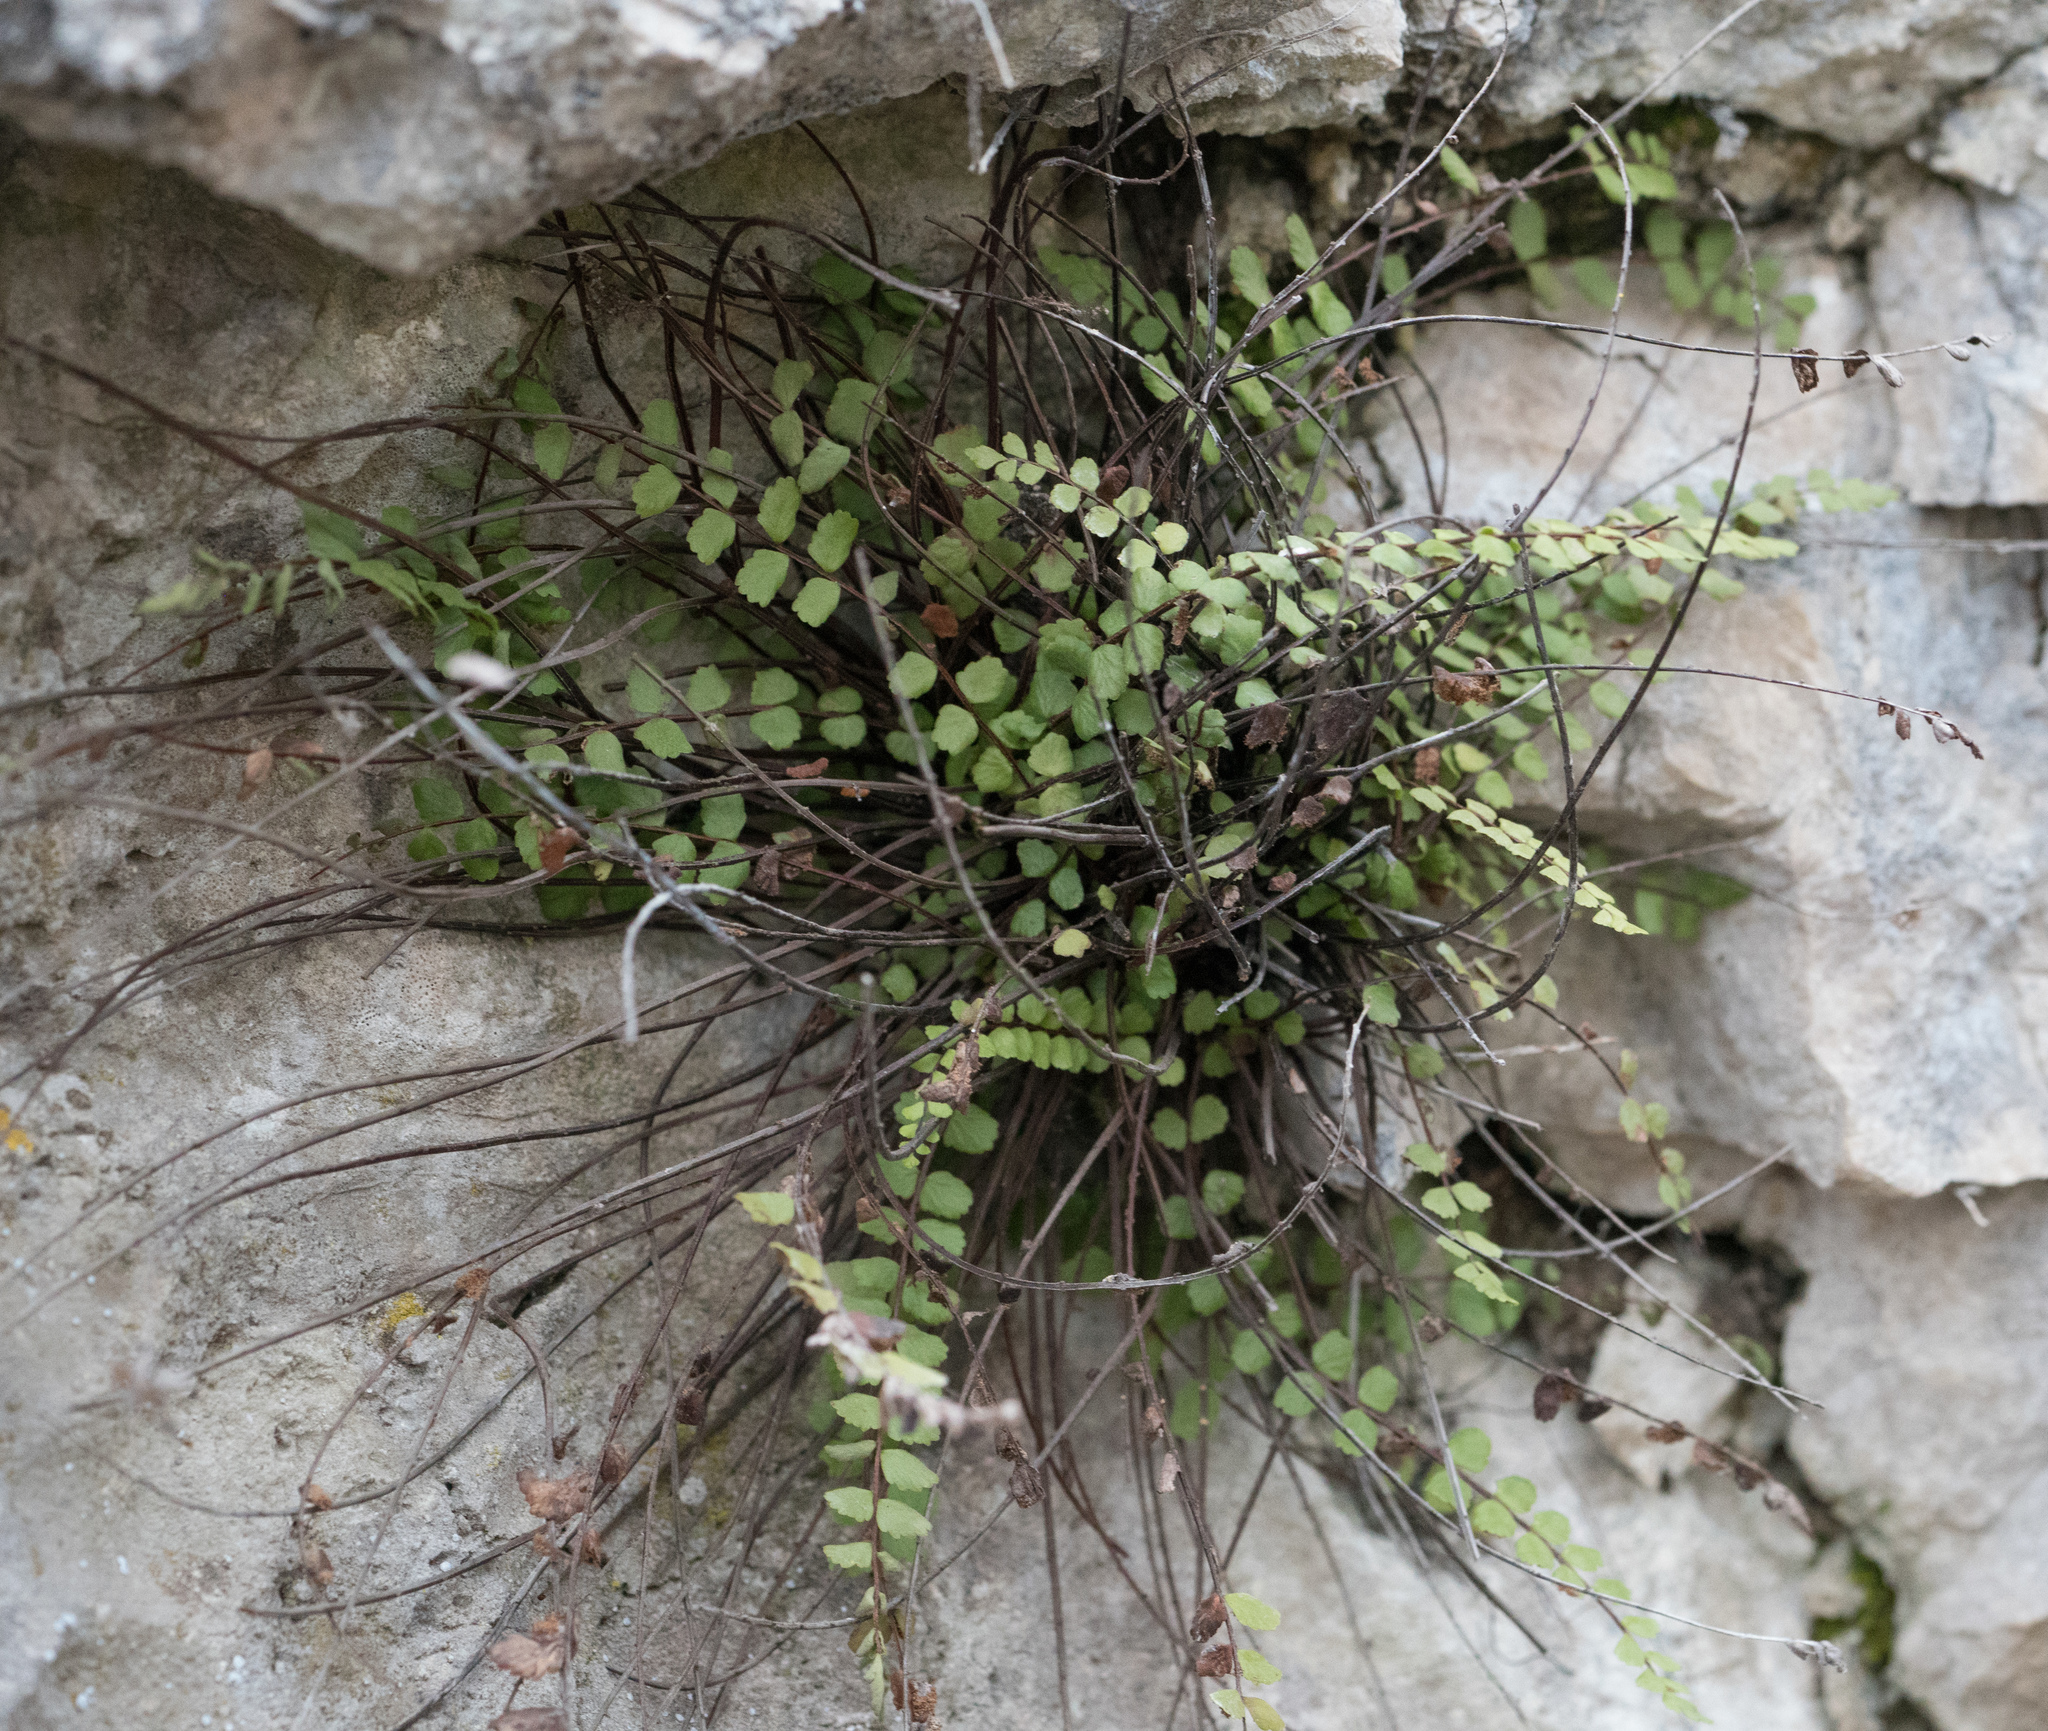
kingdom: Plantae
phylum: Tracheophyta
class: Polypodiopsida
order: Polypodiales
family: Aspleniaceae
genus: Asplenium
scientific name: Asplenium quadrivalens
